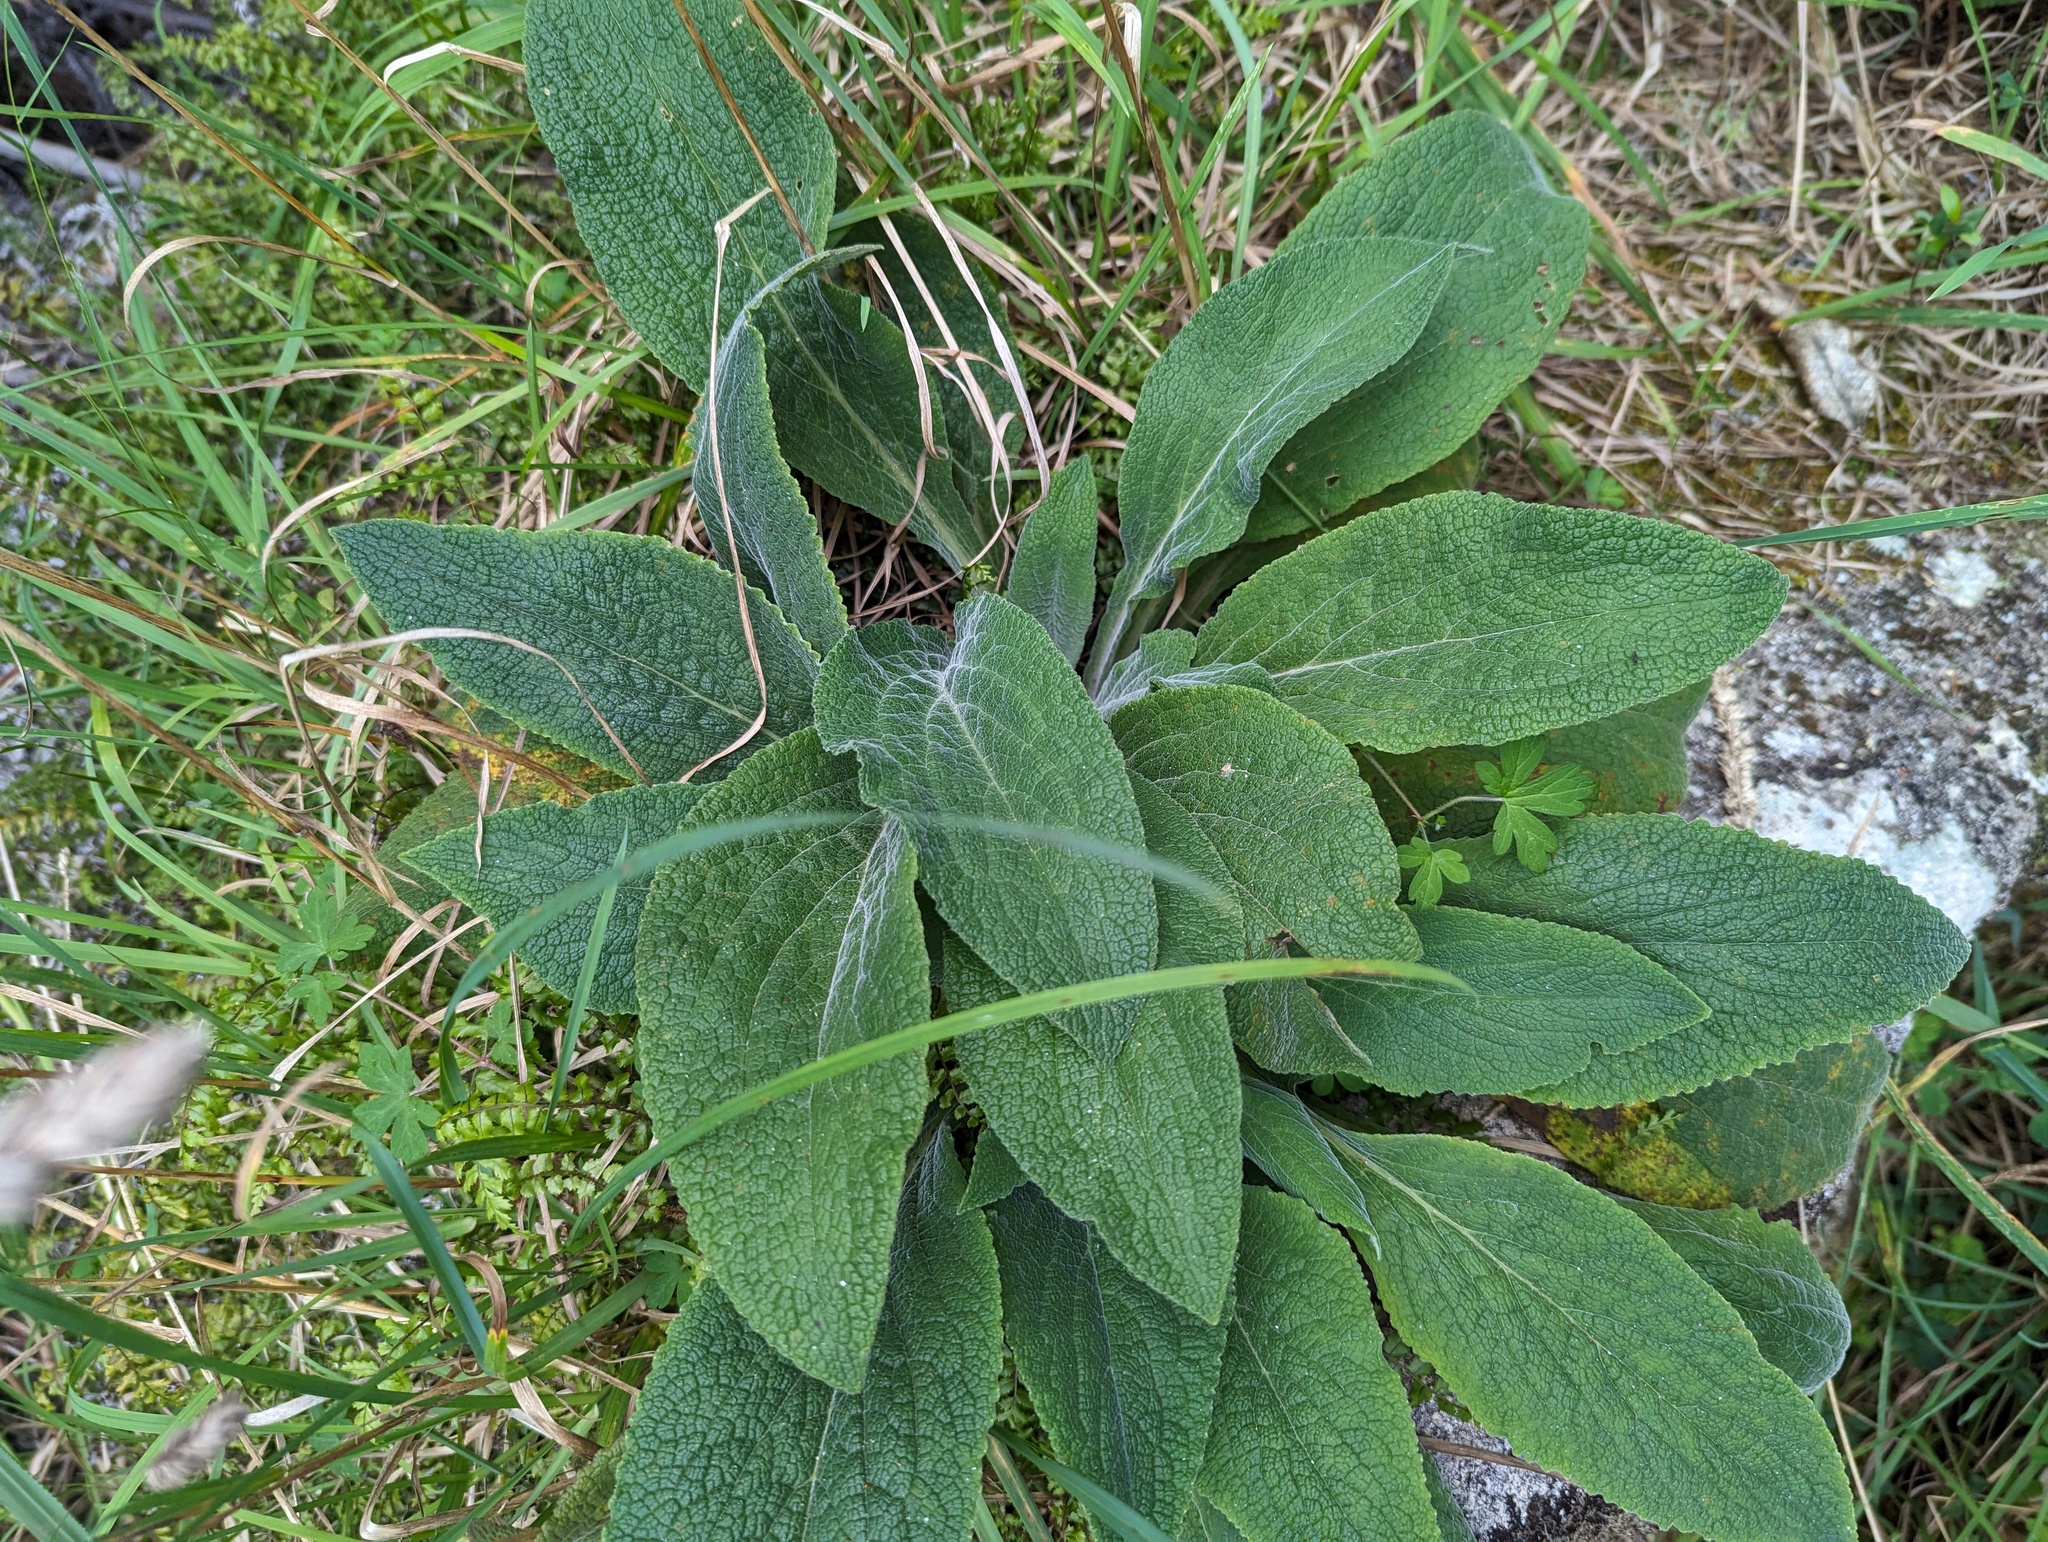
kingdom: Plantae
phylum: Tracheophyta
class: Magnoliopsida
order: Lamiales
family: Plantaginaceae
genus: Digitalis
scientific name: Digitalis purpurea
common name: Foxglove
